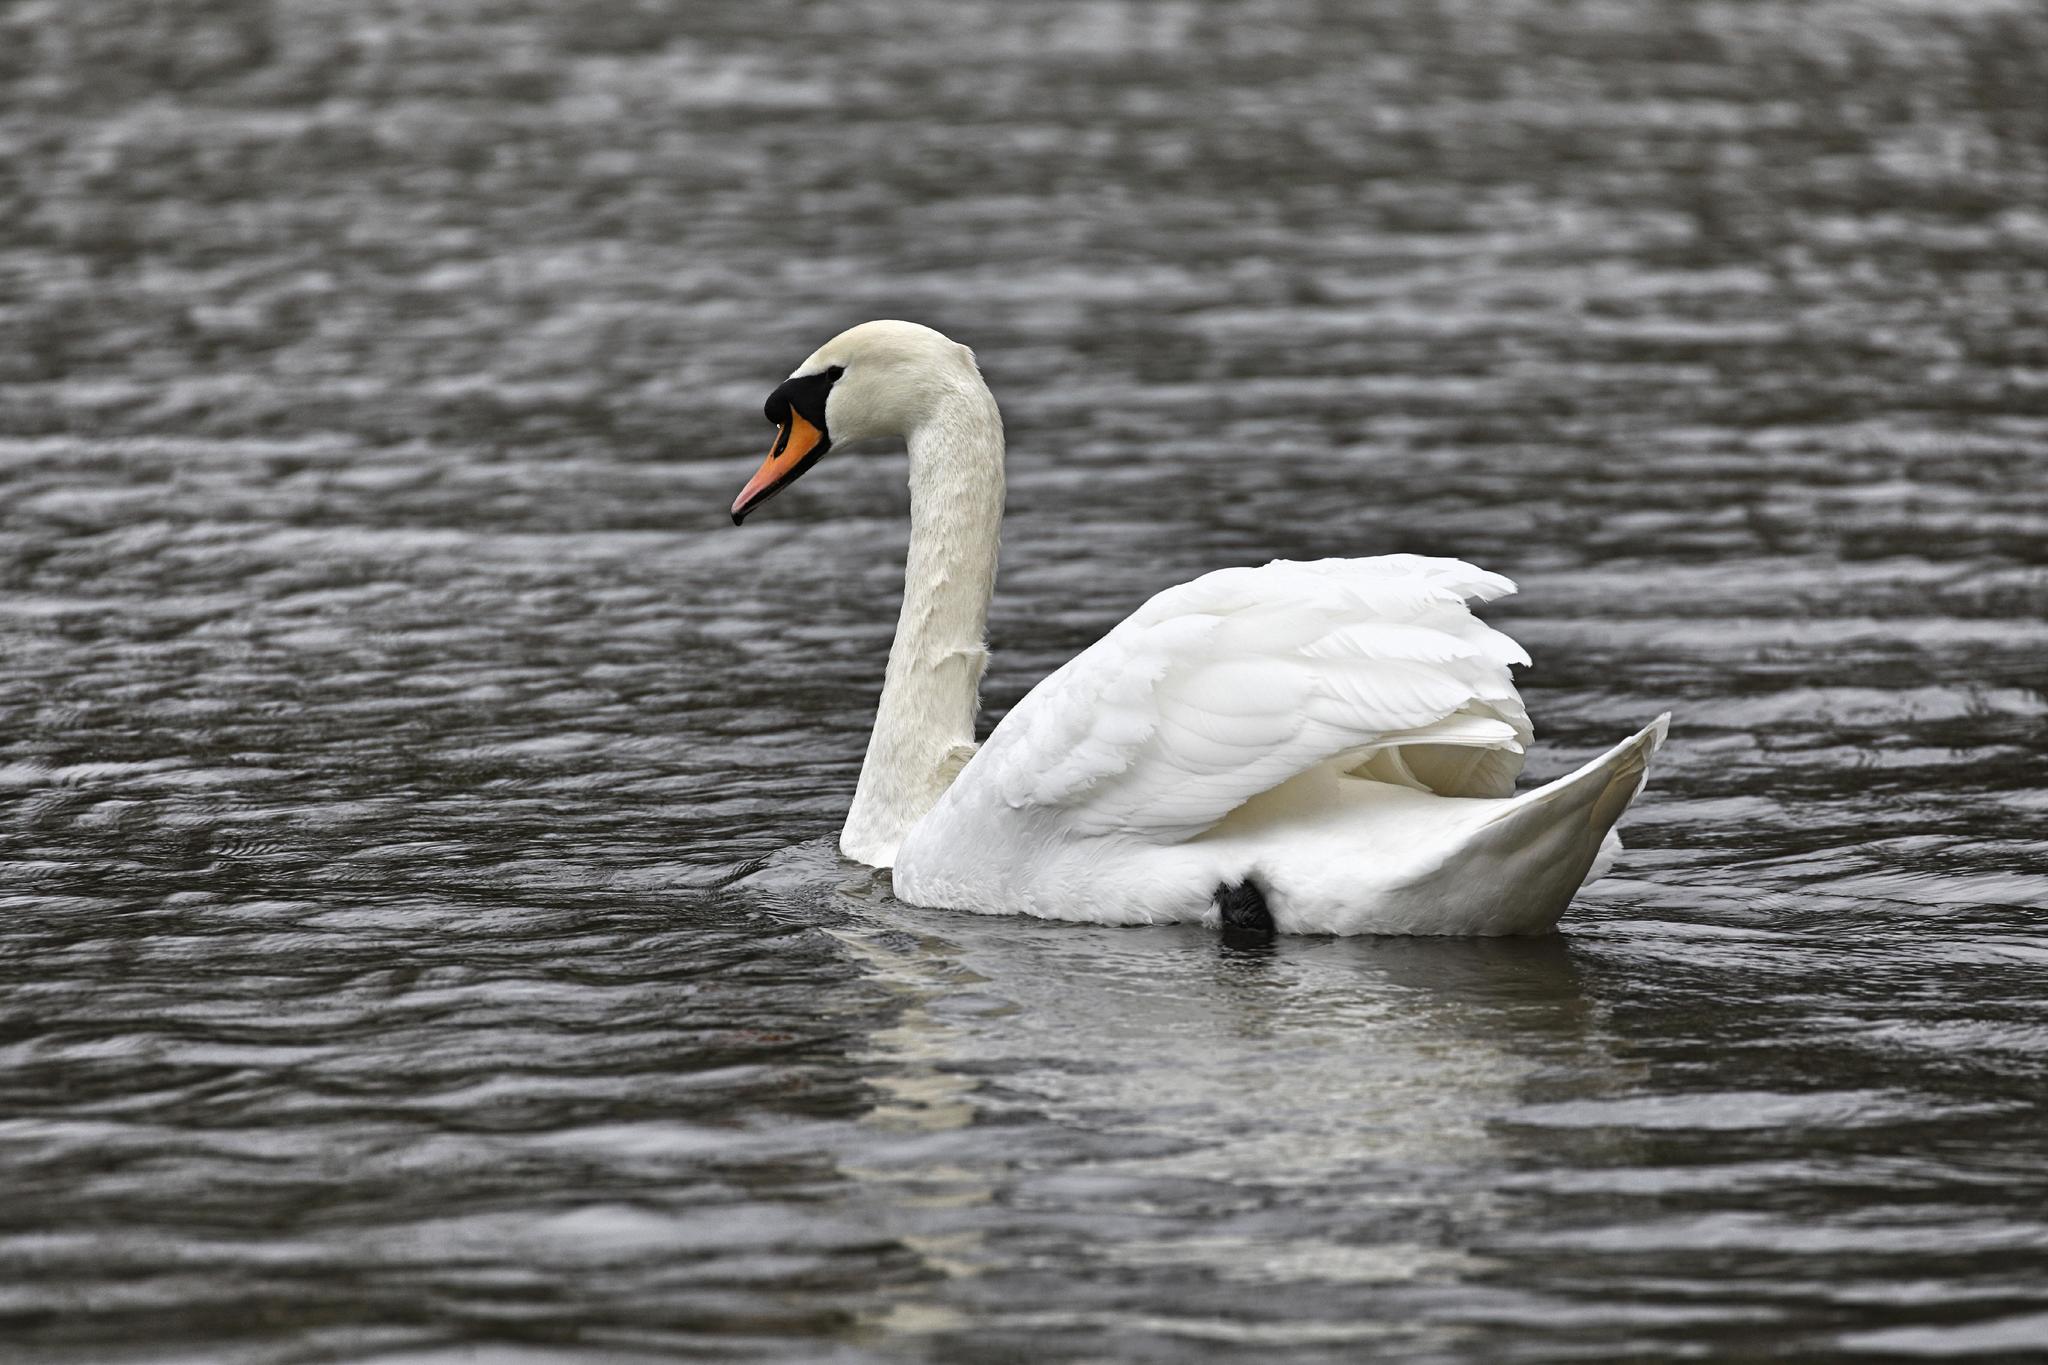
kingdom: Animalia
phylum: Chordata
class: Aves
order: Anseriformes
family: Anatidae
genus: Cygnus
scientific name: Cygnus olor
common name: Mute swan
